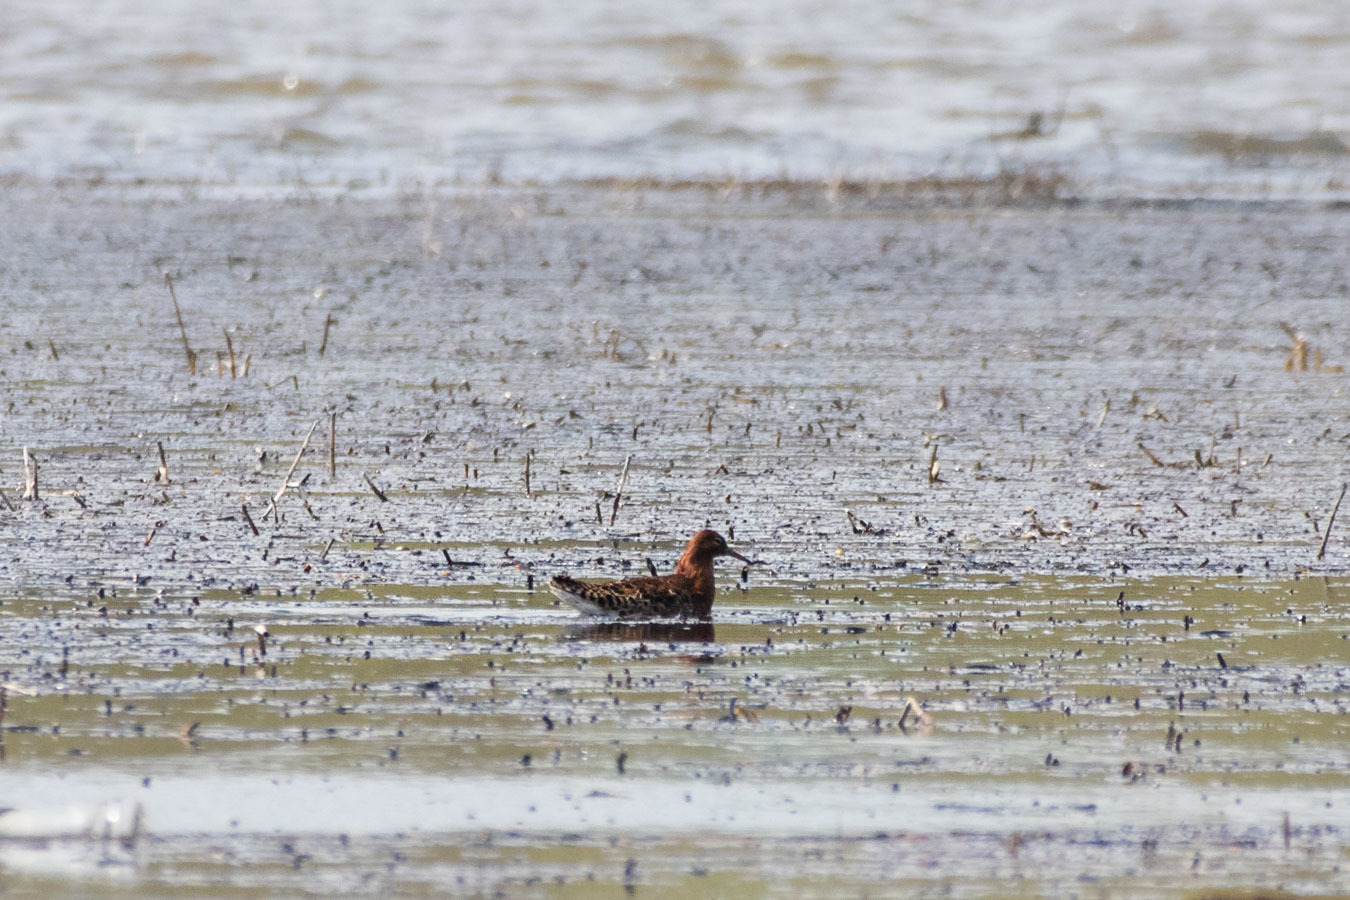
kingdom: Animalia
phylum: Chordata
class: Aves
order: Charadriiformes
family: Scolopacidae
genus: Calidris
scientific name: Calidris pugnax
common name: Ruff
